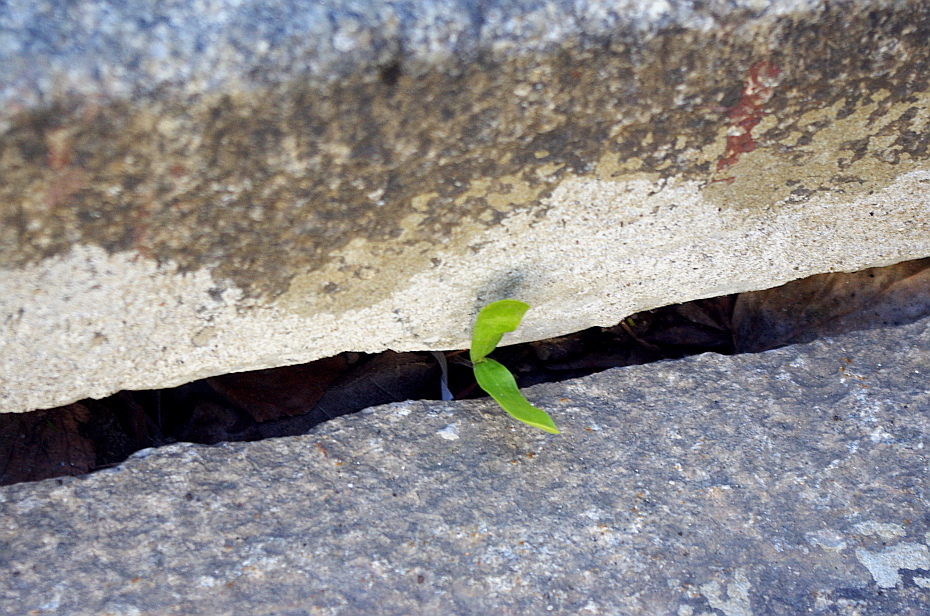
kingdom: Plantae
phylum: Tracheophyta
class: Magnoliopsida
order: Sapindales
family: Sapindaceae
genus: Acer
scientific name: Acer platanoides
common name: Norway maple
